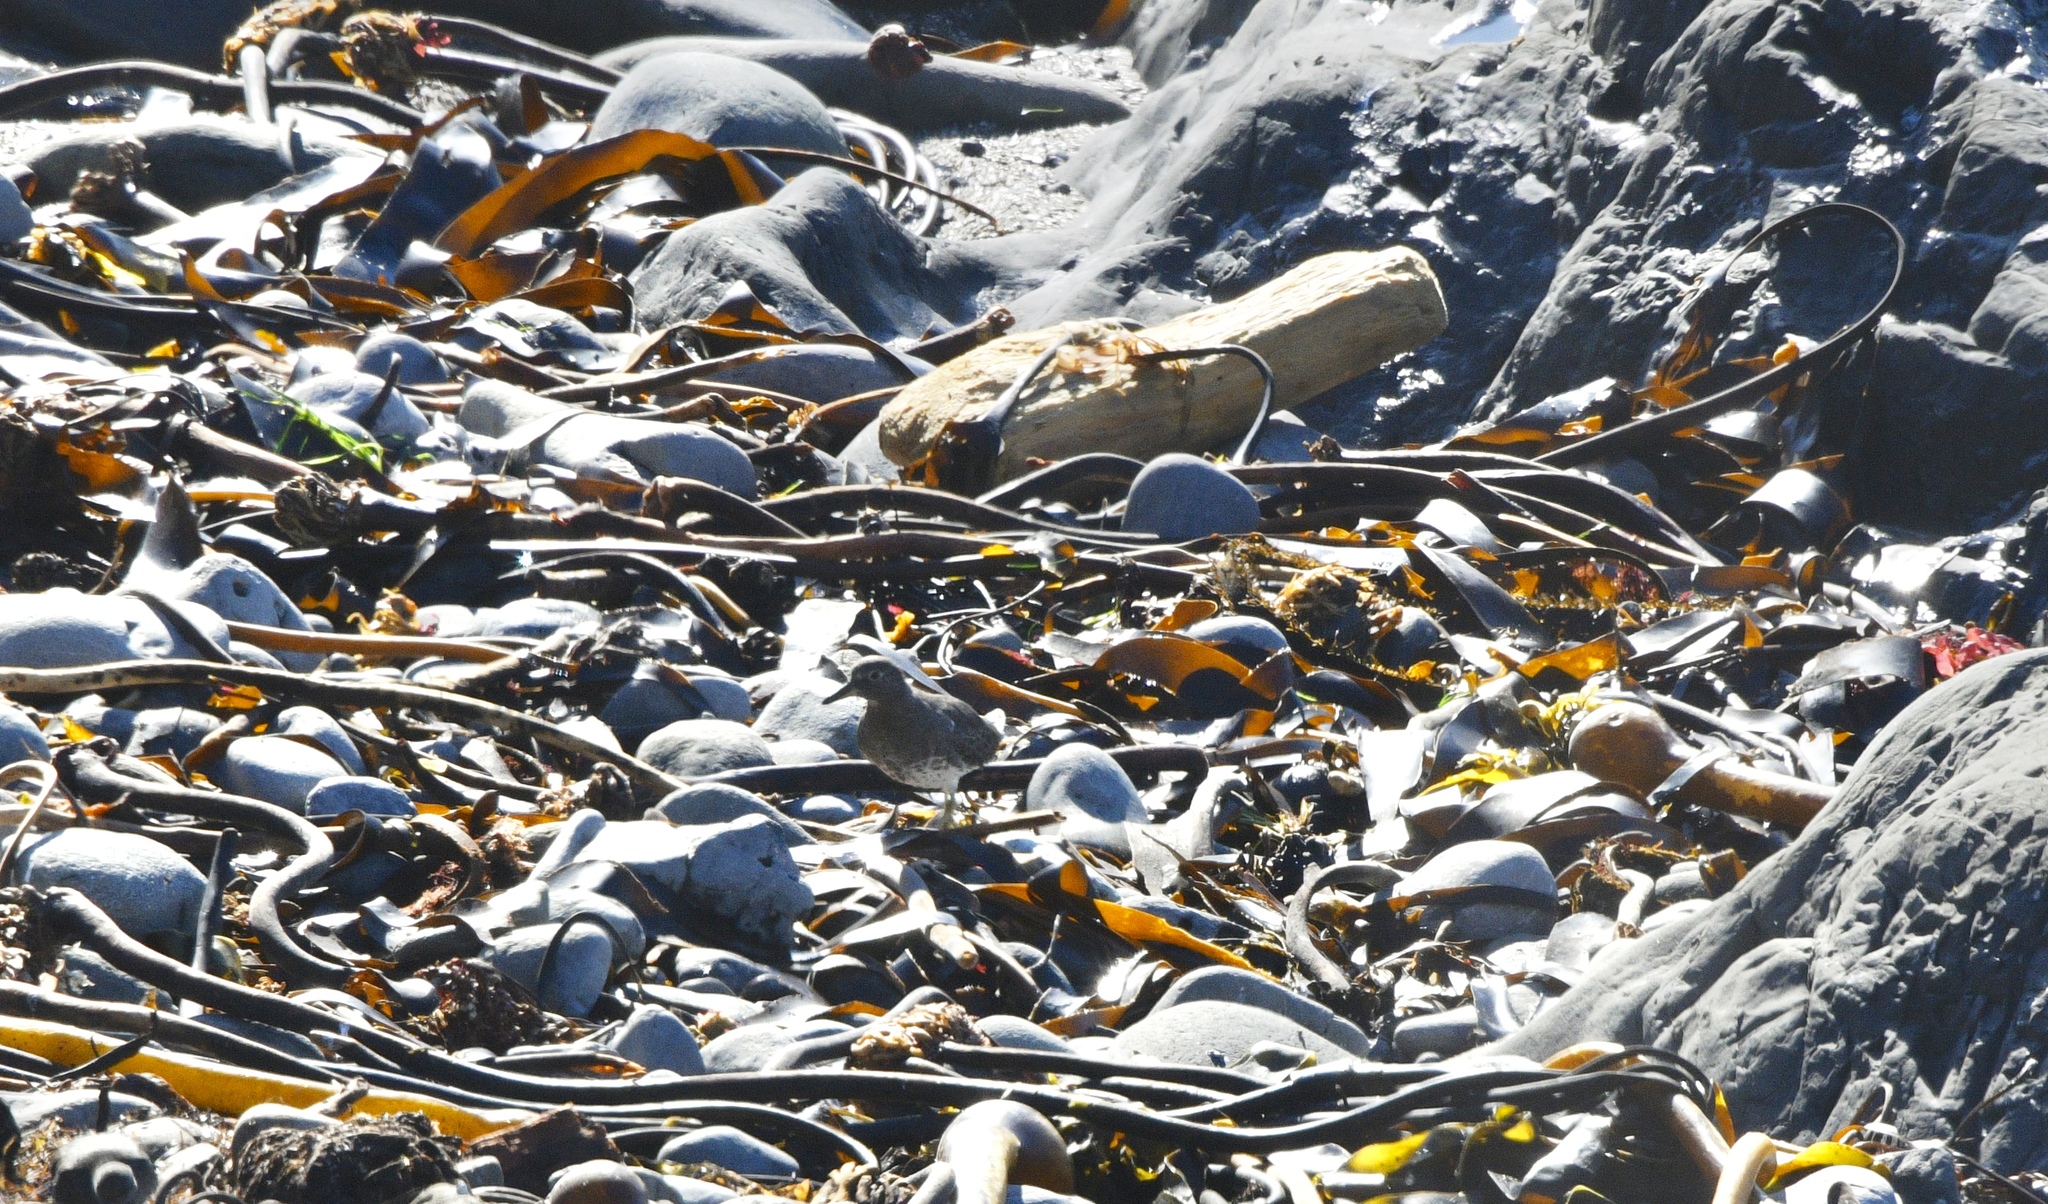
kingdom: Animalia
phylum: Chordata
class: Aves
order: Charadriiformes
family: Scolopacidae
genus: Calidris
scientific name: Calidris virgata
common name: Surfbird
